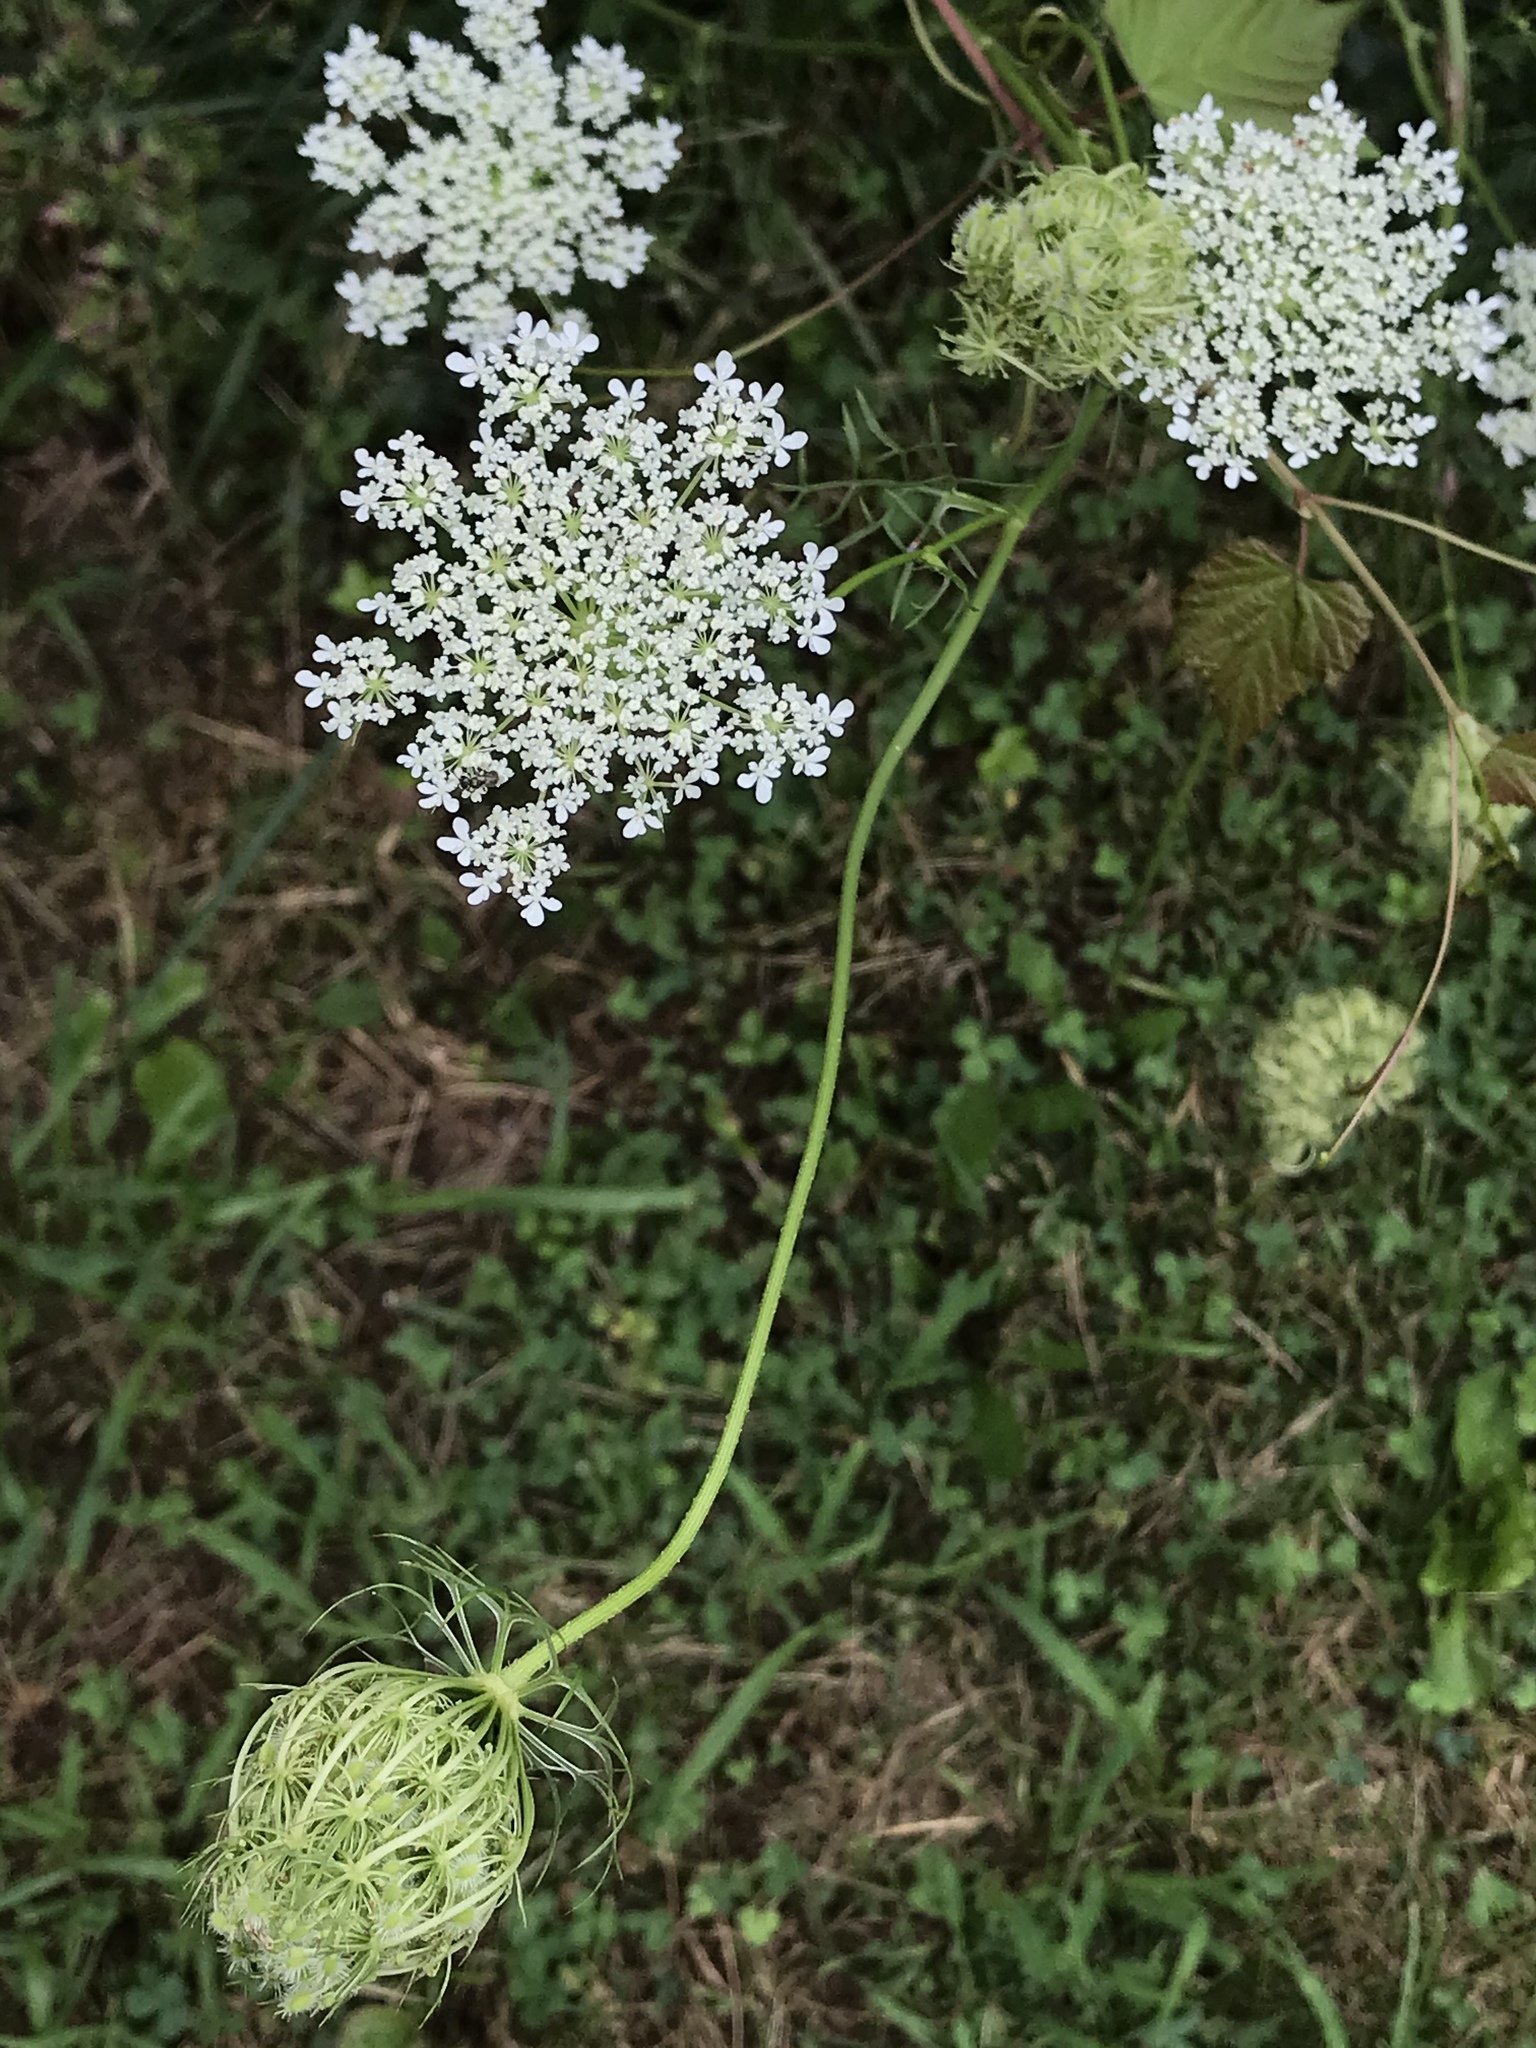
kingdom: Plantae
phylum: Tracheophyta
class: Magnoliopsida
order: Apiales
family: Apiaceae
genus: Daucus
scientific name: Daucus carota
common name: Wild carrot
